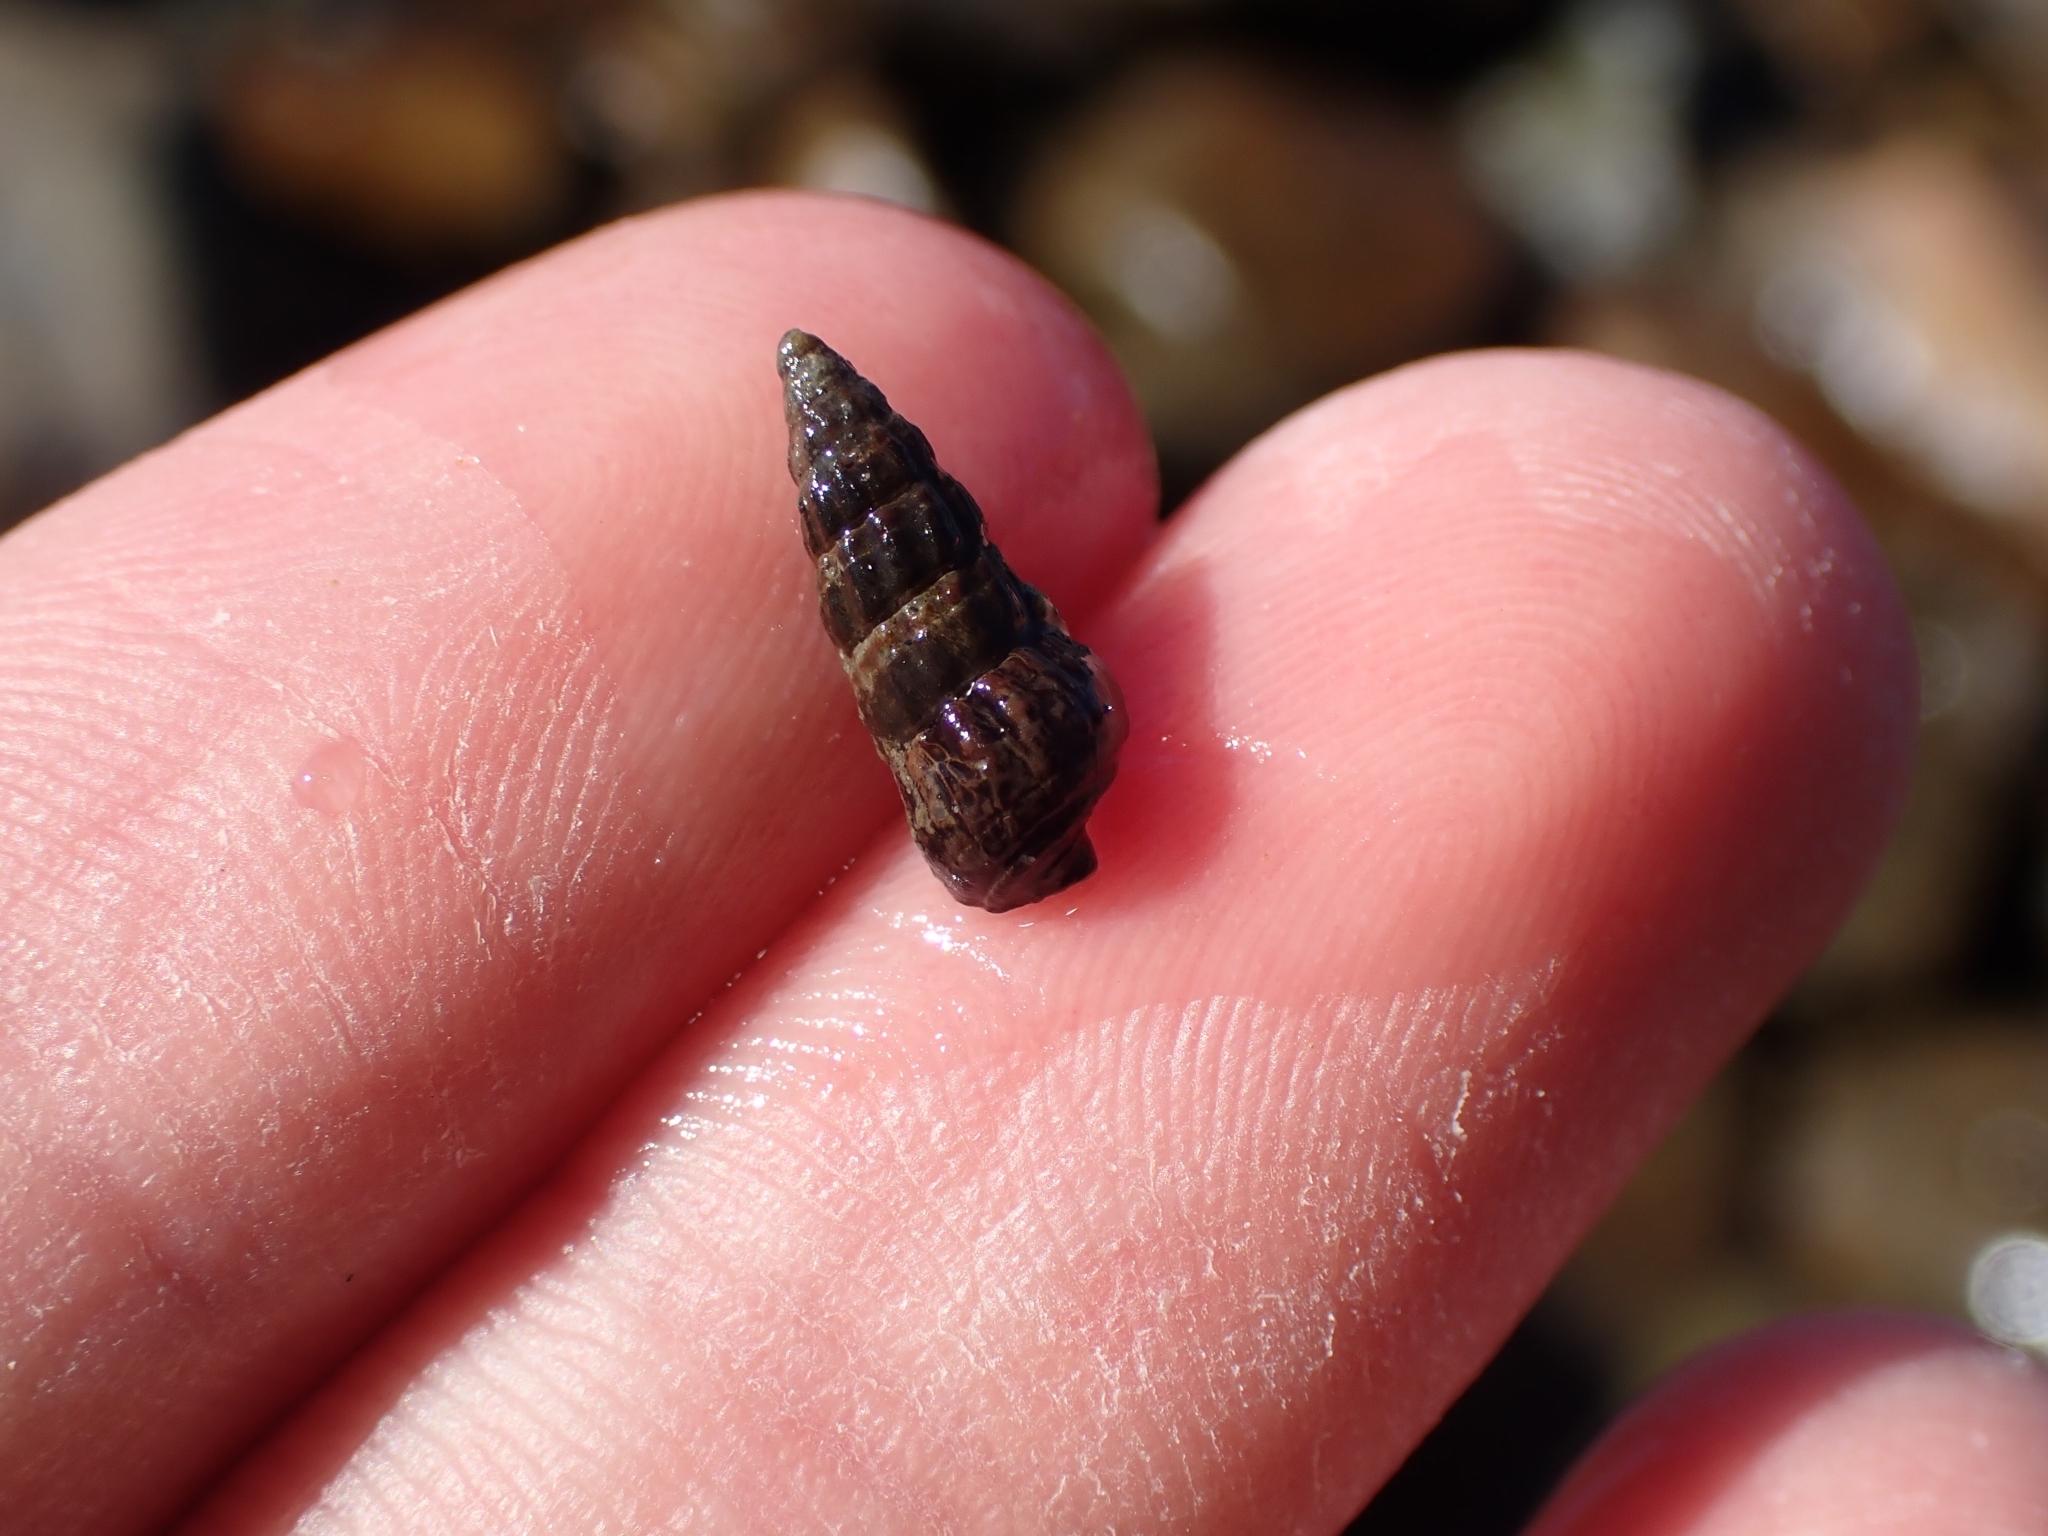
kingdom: Animalia
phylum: Mollusca
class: Gastropoda
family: Batillariidae
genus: Zeacumantus
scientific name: Zeacumantus subcarinatus
